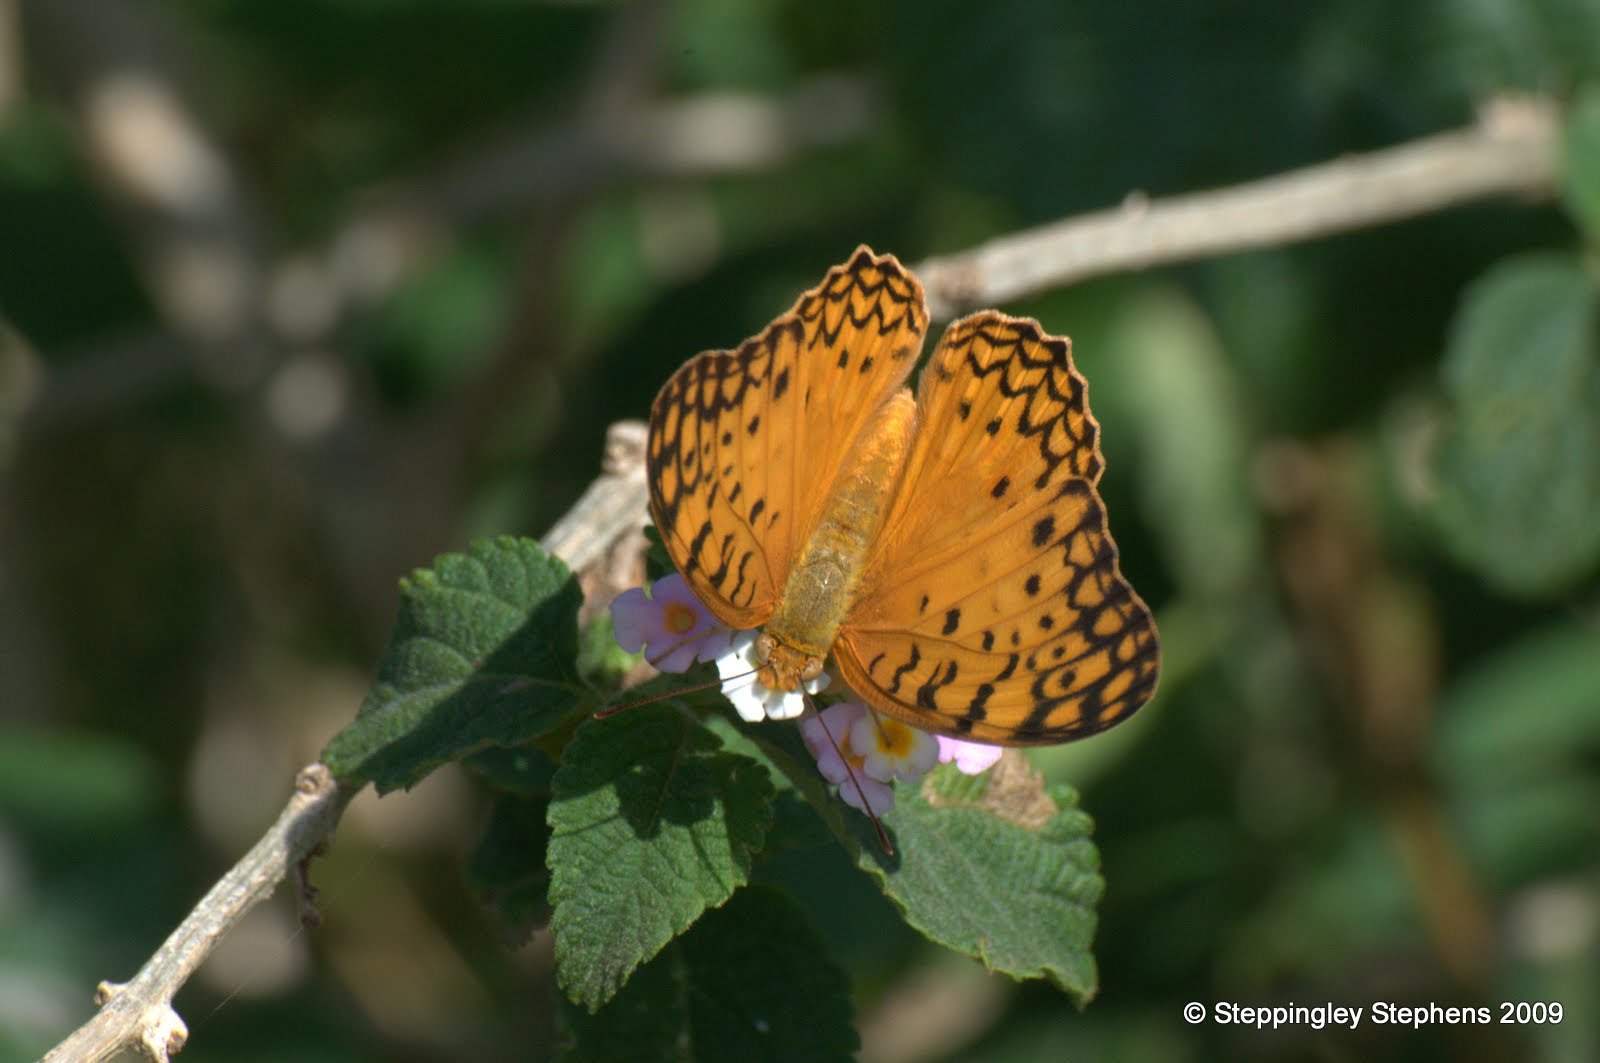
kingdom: Animalia
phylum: Arthropoda
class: Insecta
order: Lepidoptera
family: Nymphalidae
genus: Phalanta
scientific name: Phalanta phalantha
